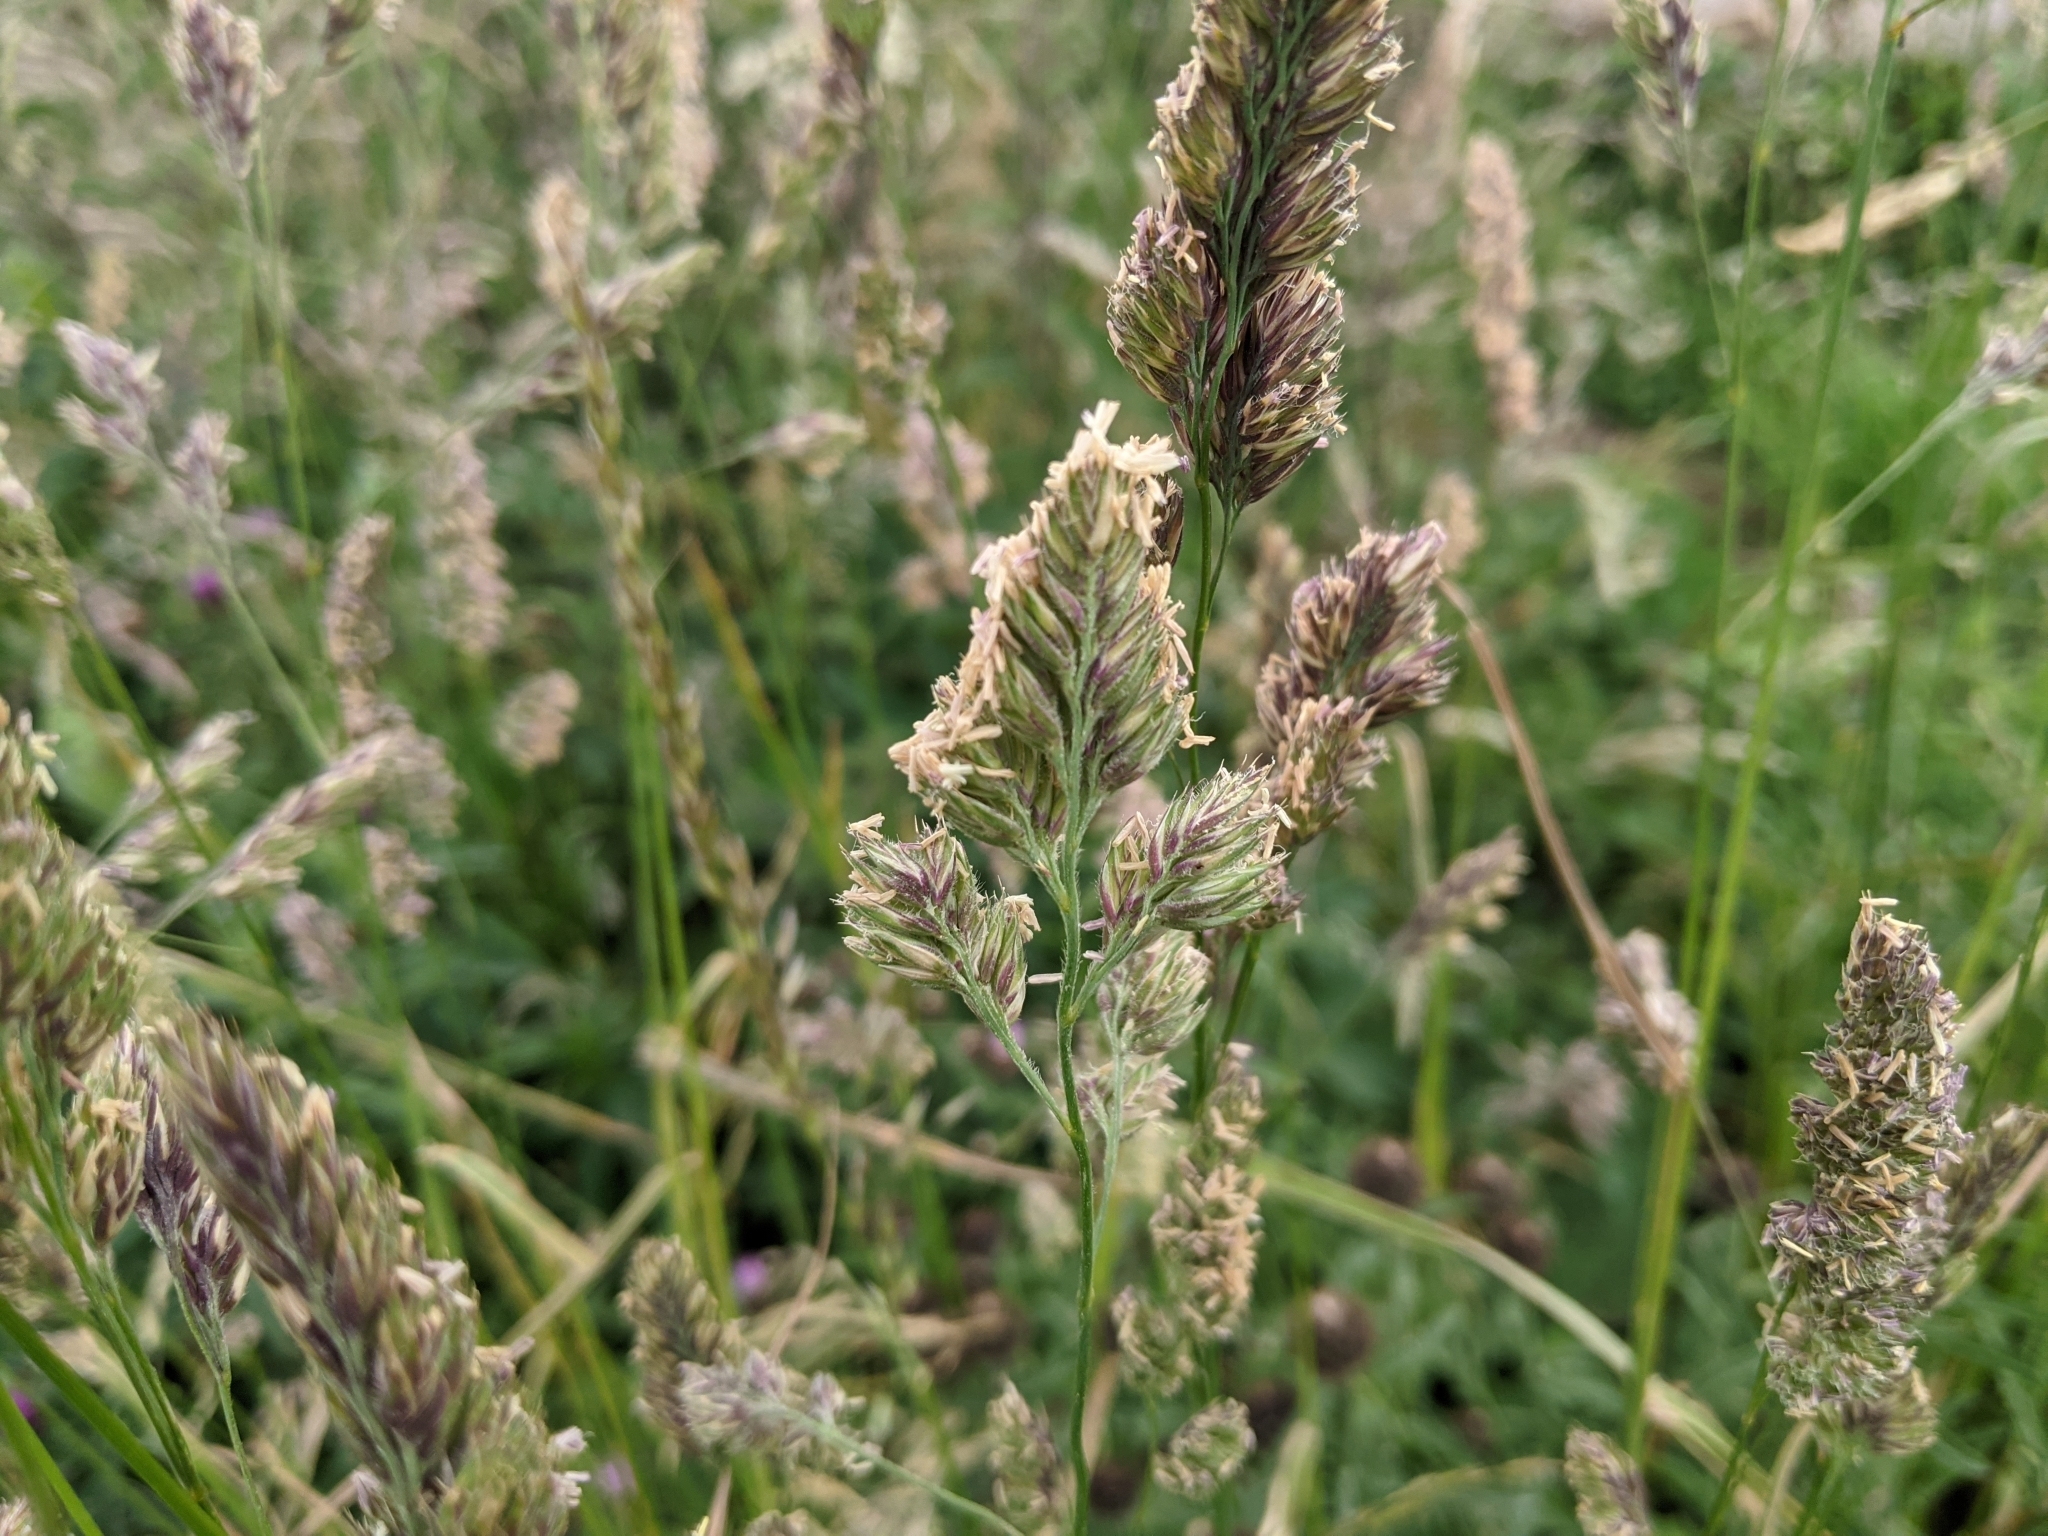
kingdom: Plantae
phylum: Tracheophyta
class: Liliopsida
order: Poales
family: Poaceae
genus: Dactylis
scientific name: Dactylis glomerata
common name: Orchardgrass
